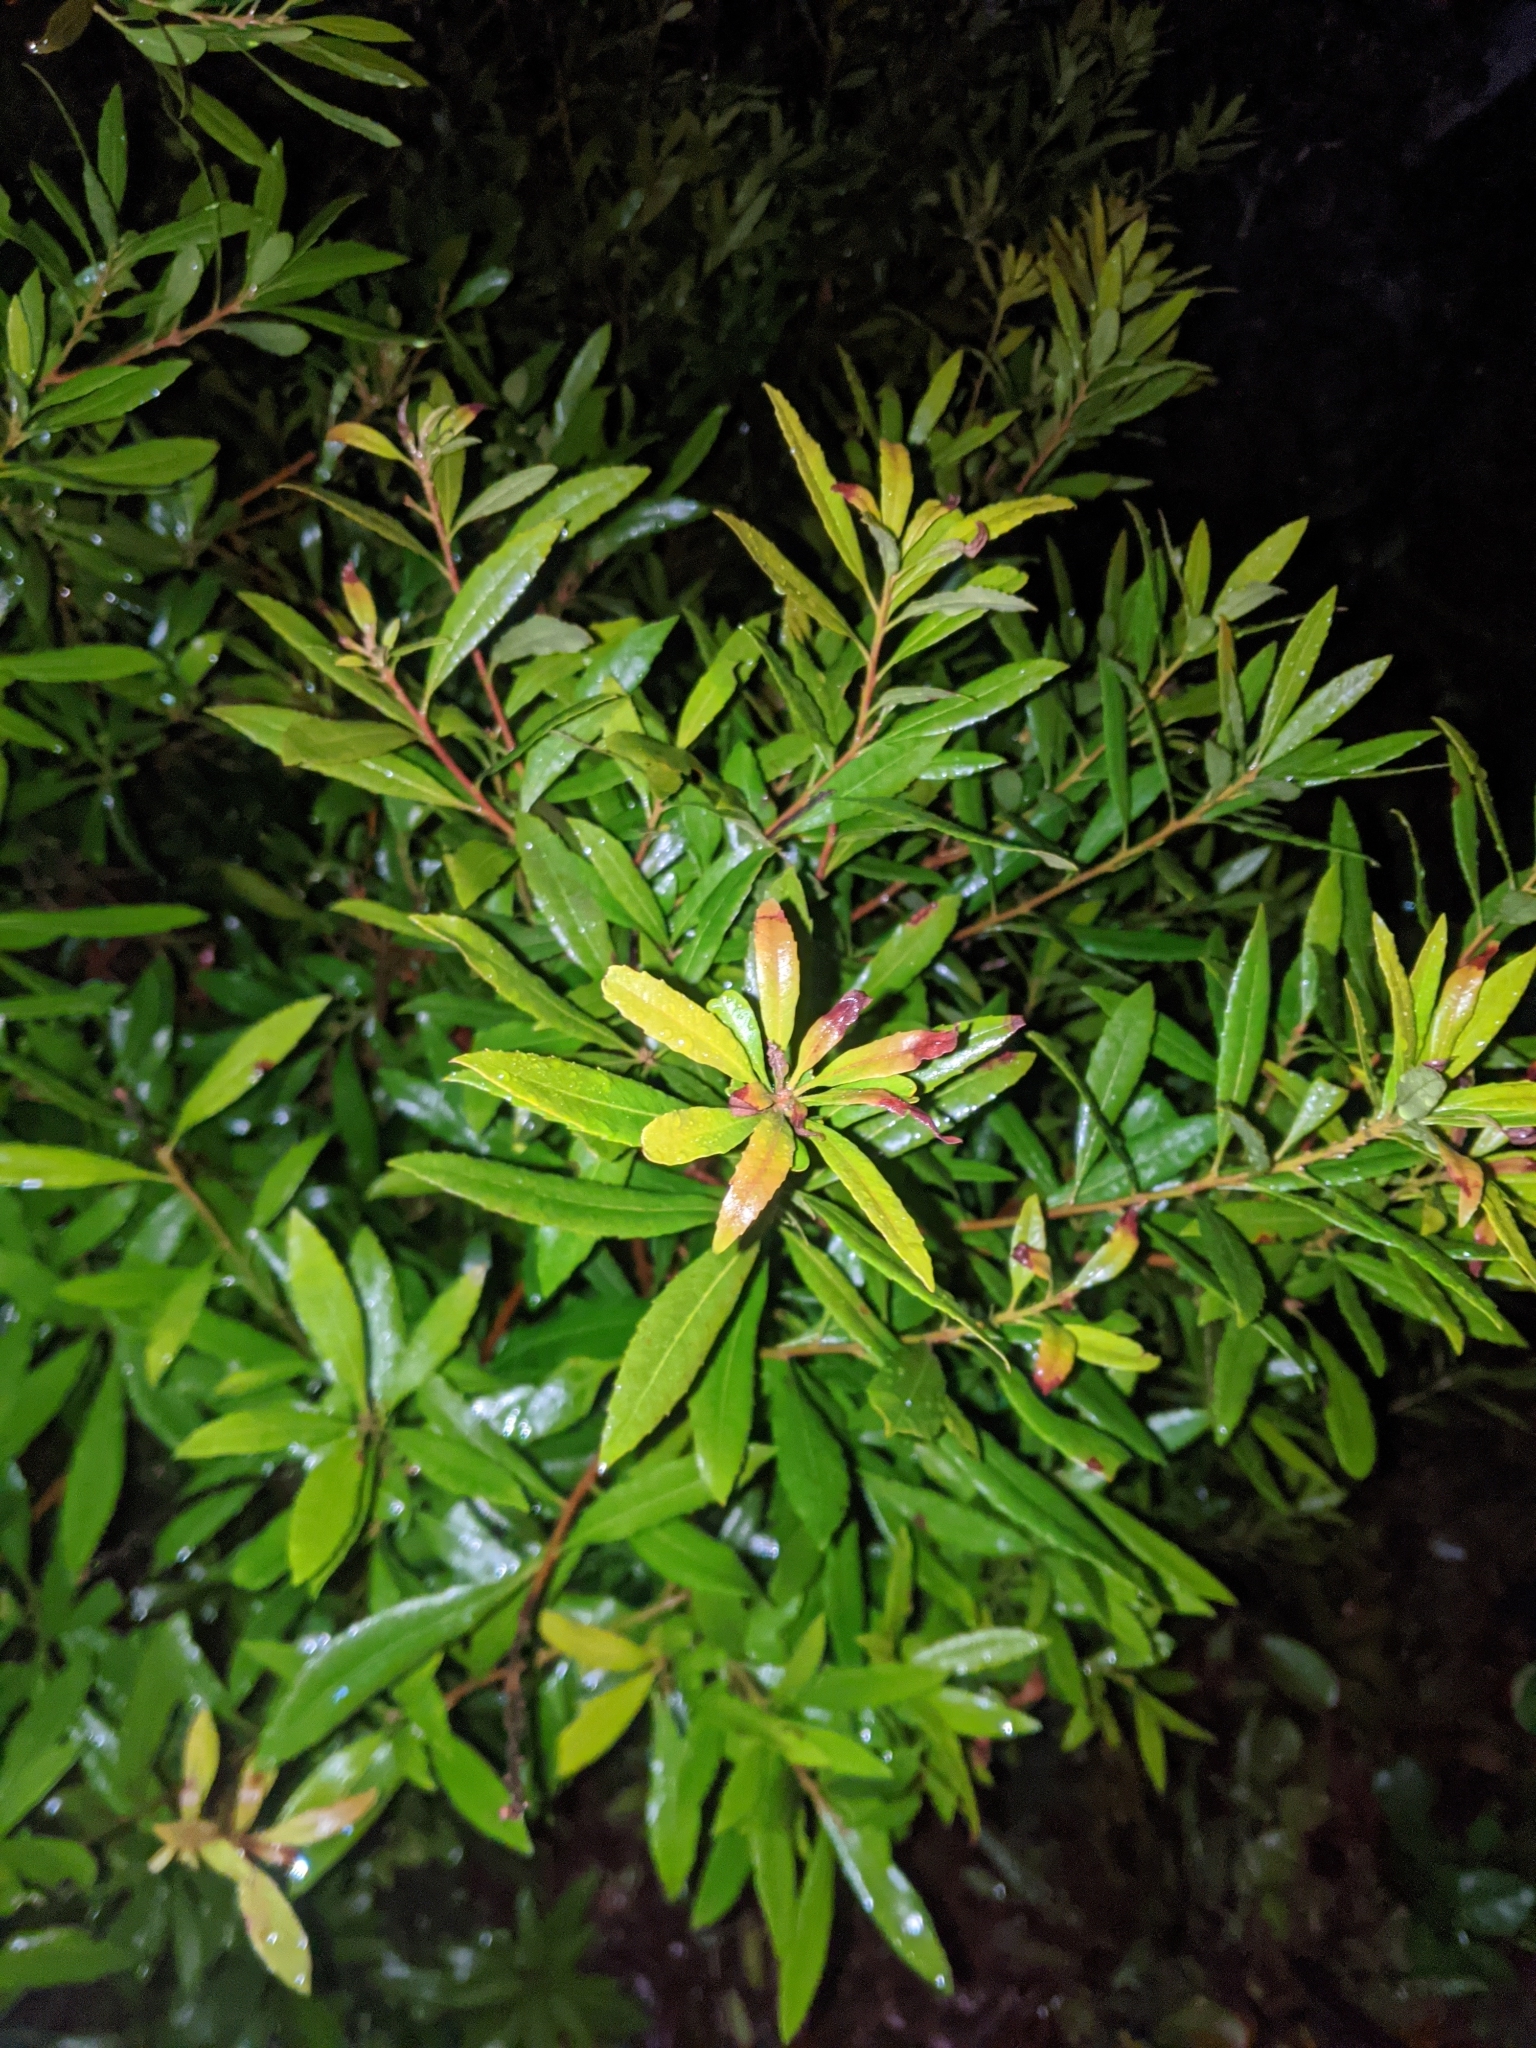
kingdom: Plantae
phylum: Tracheophyta
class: Magnoliopsida
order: Fagales
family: Myricaceae
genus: Morella
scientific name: Morella californica
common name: California wax-myrtle
